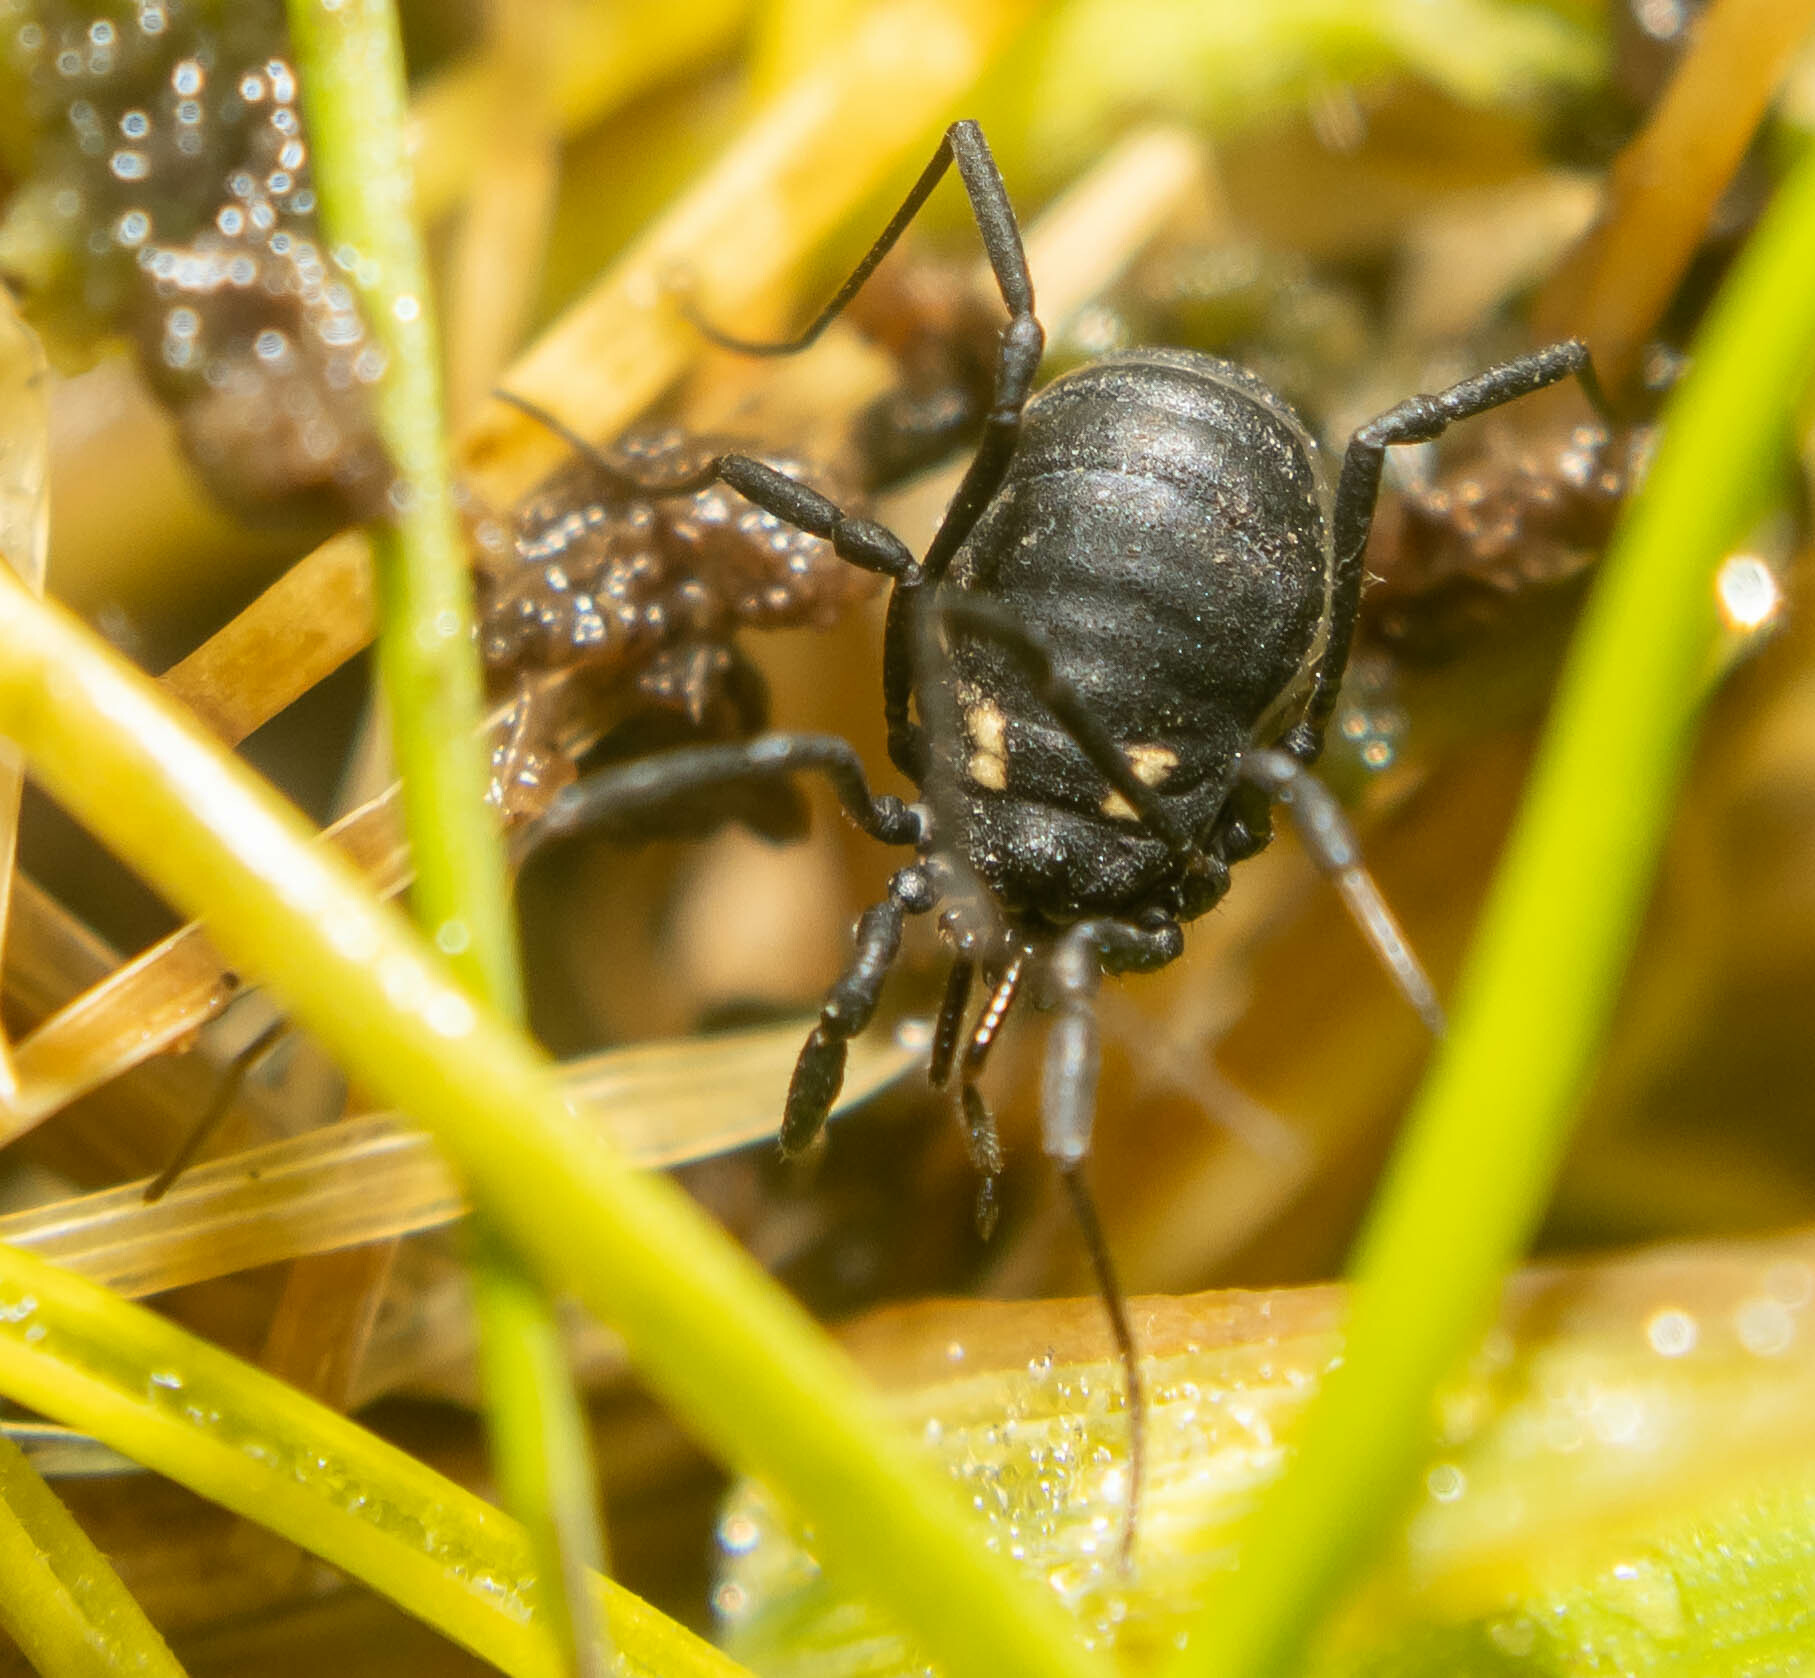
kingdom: Animalia
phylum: Arthropoda
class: Arachnida
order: Opiliones
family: Nemastomatidae
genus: Nemastoma
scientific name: Nemastoma bimaculatum
